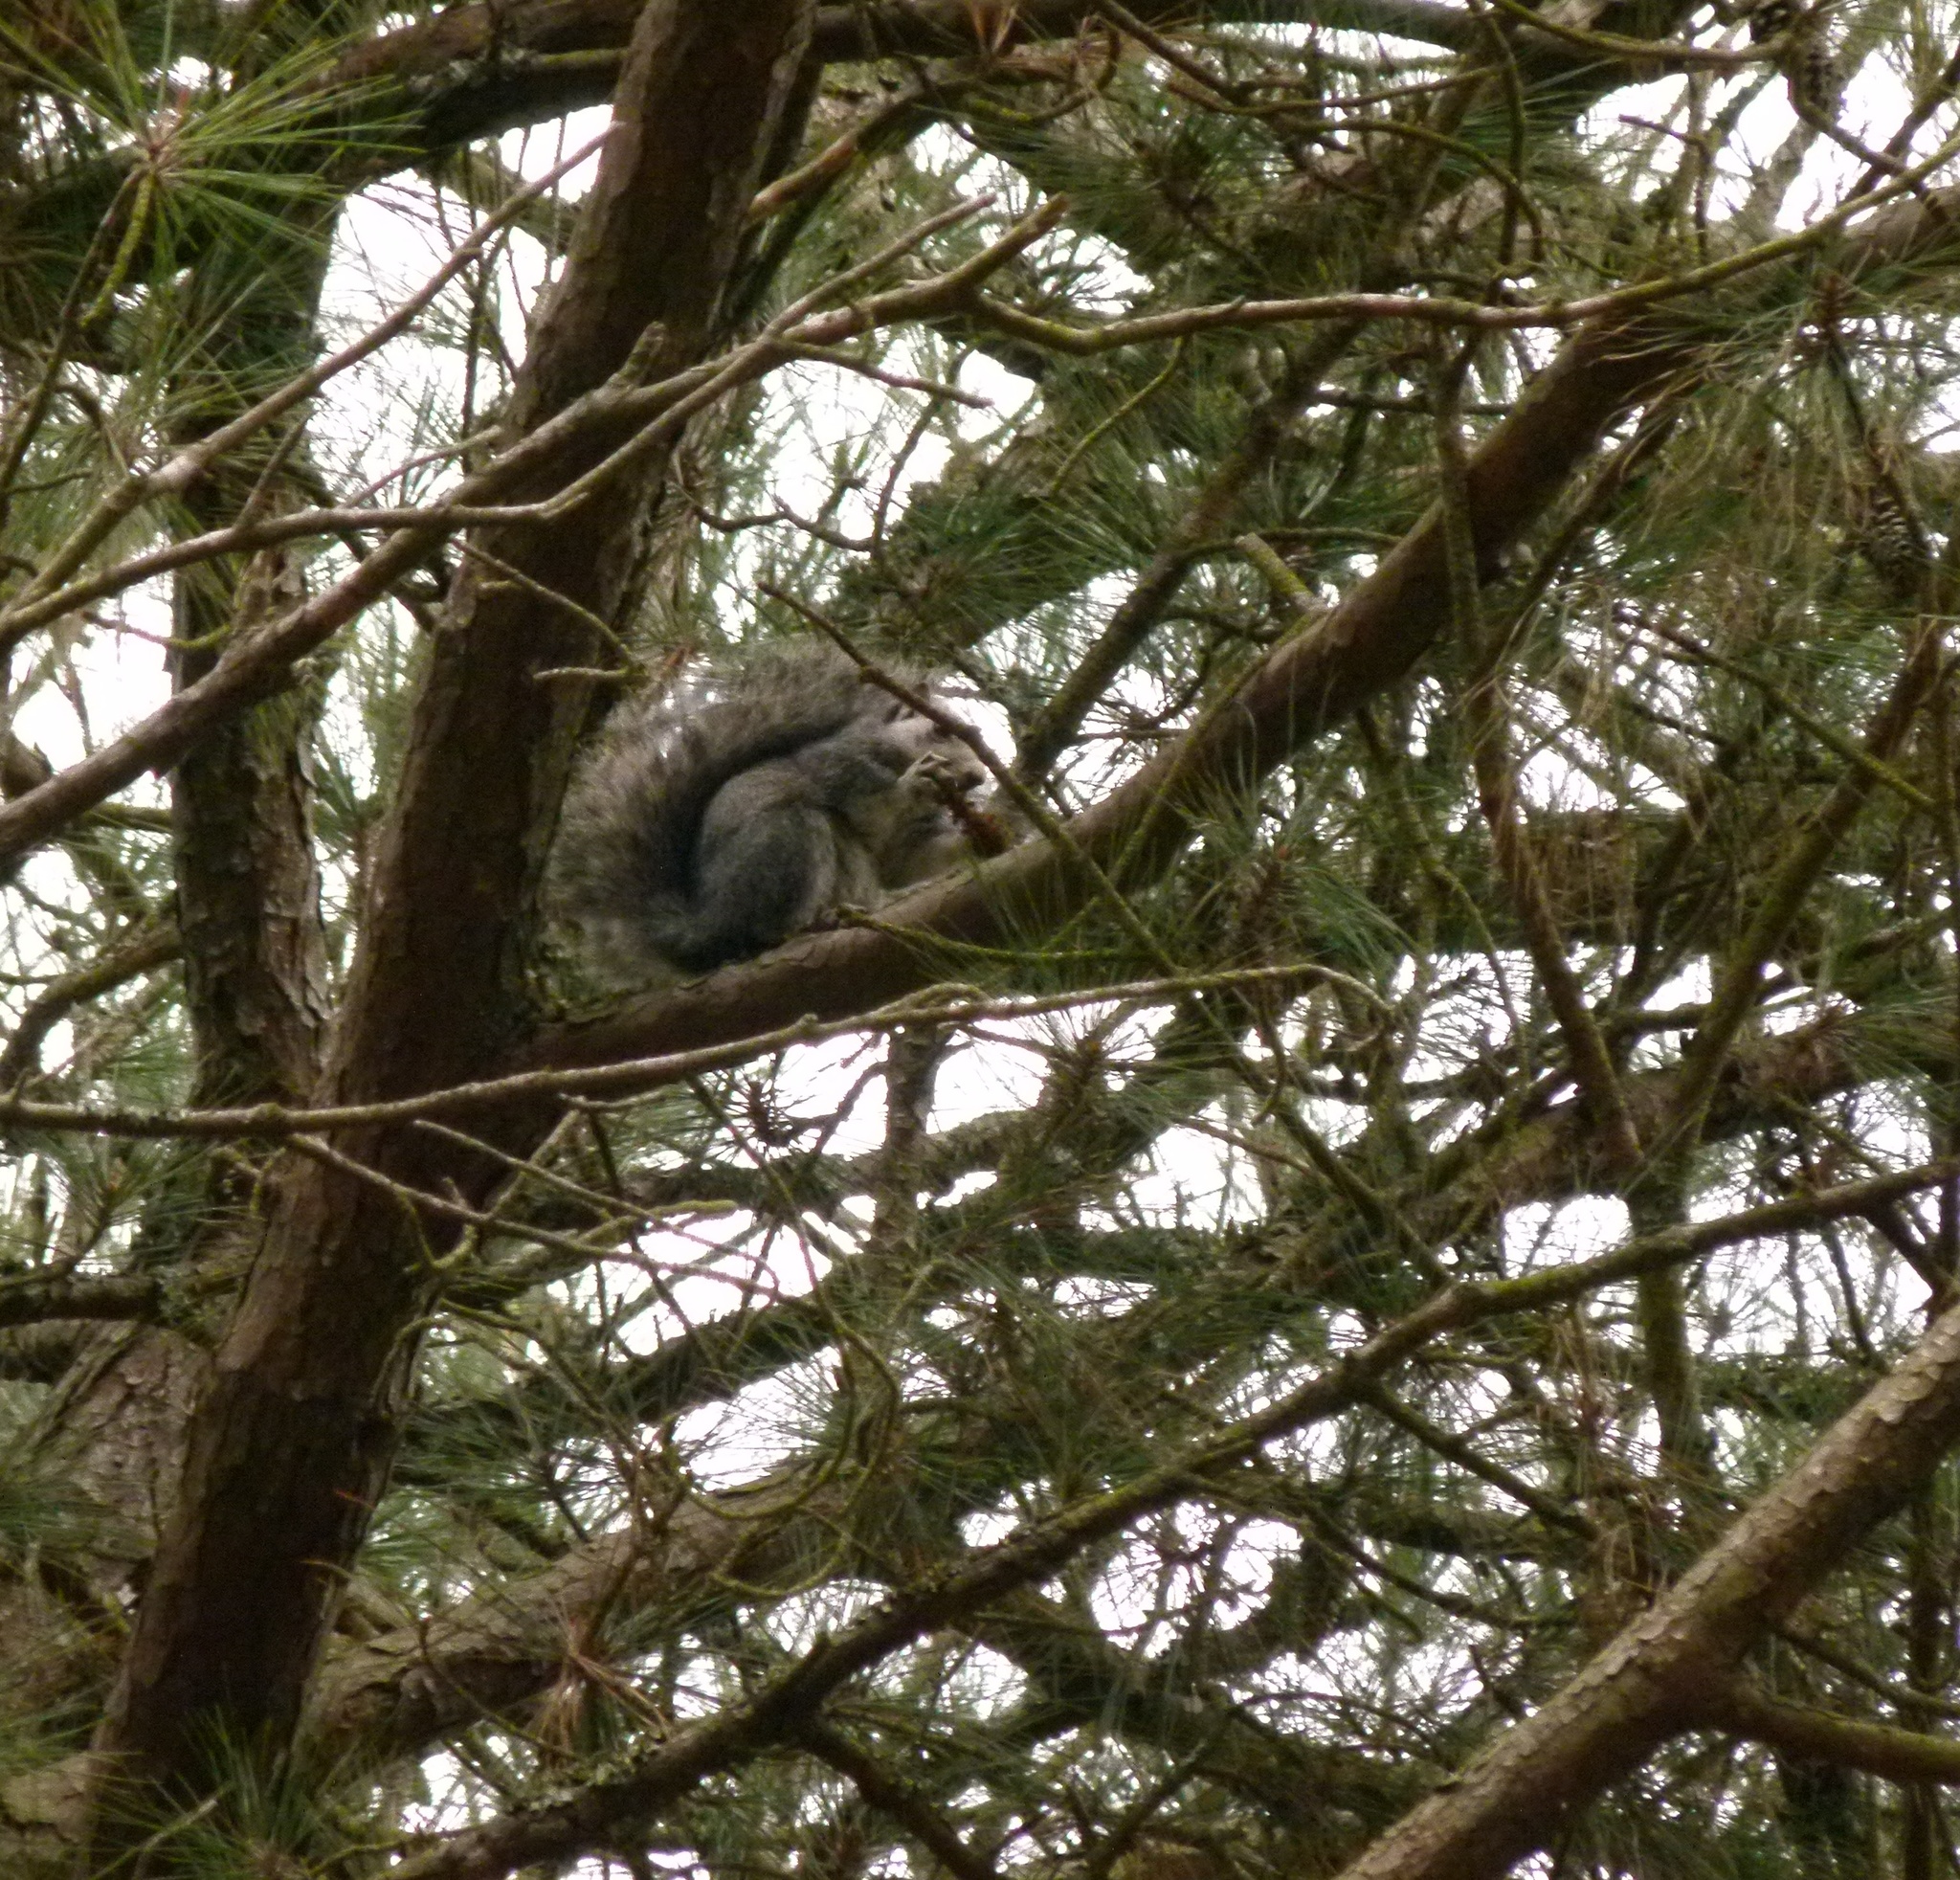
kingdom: Animalia
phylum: Chordata
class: Mammalia
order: Rodentia
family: Sciuridae
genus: Sciurus
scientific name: Sciurus niger
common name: Fox squirrel
